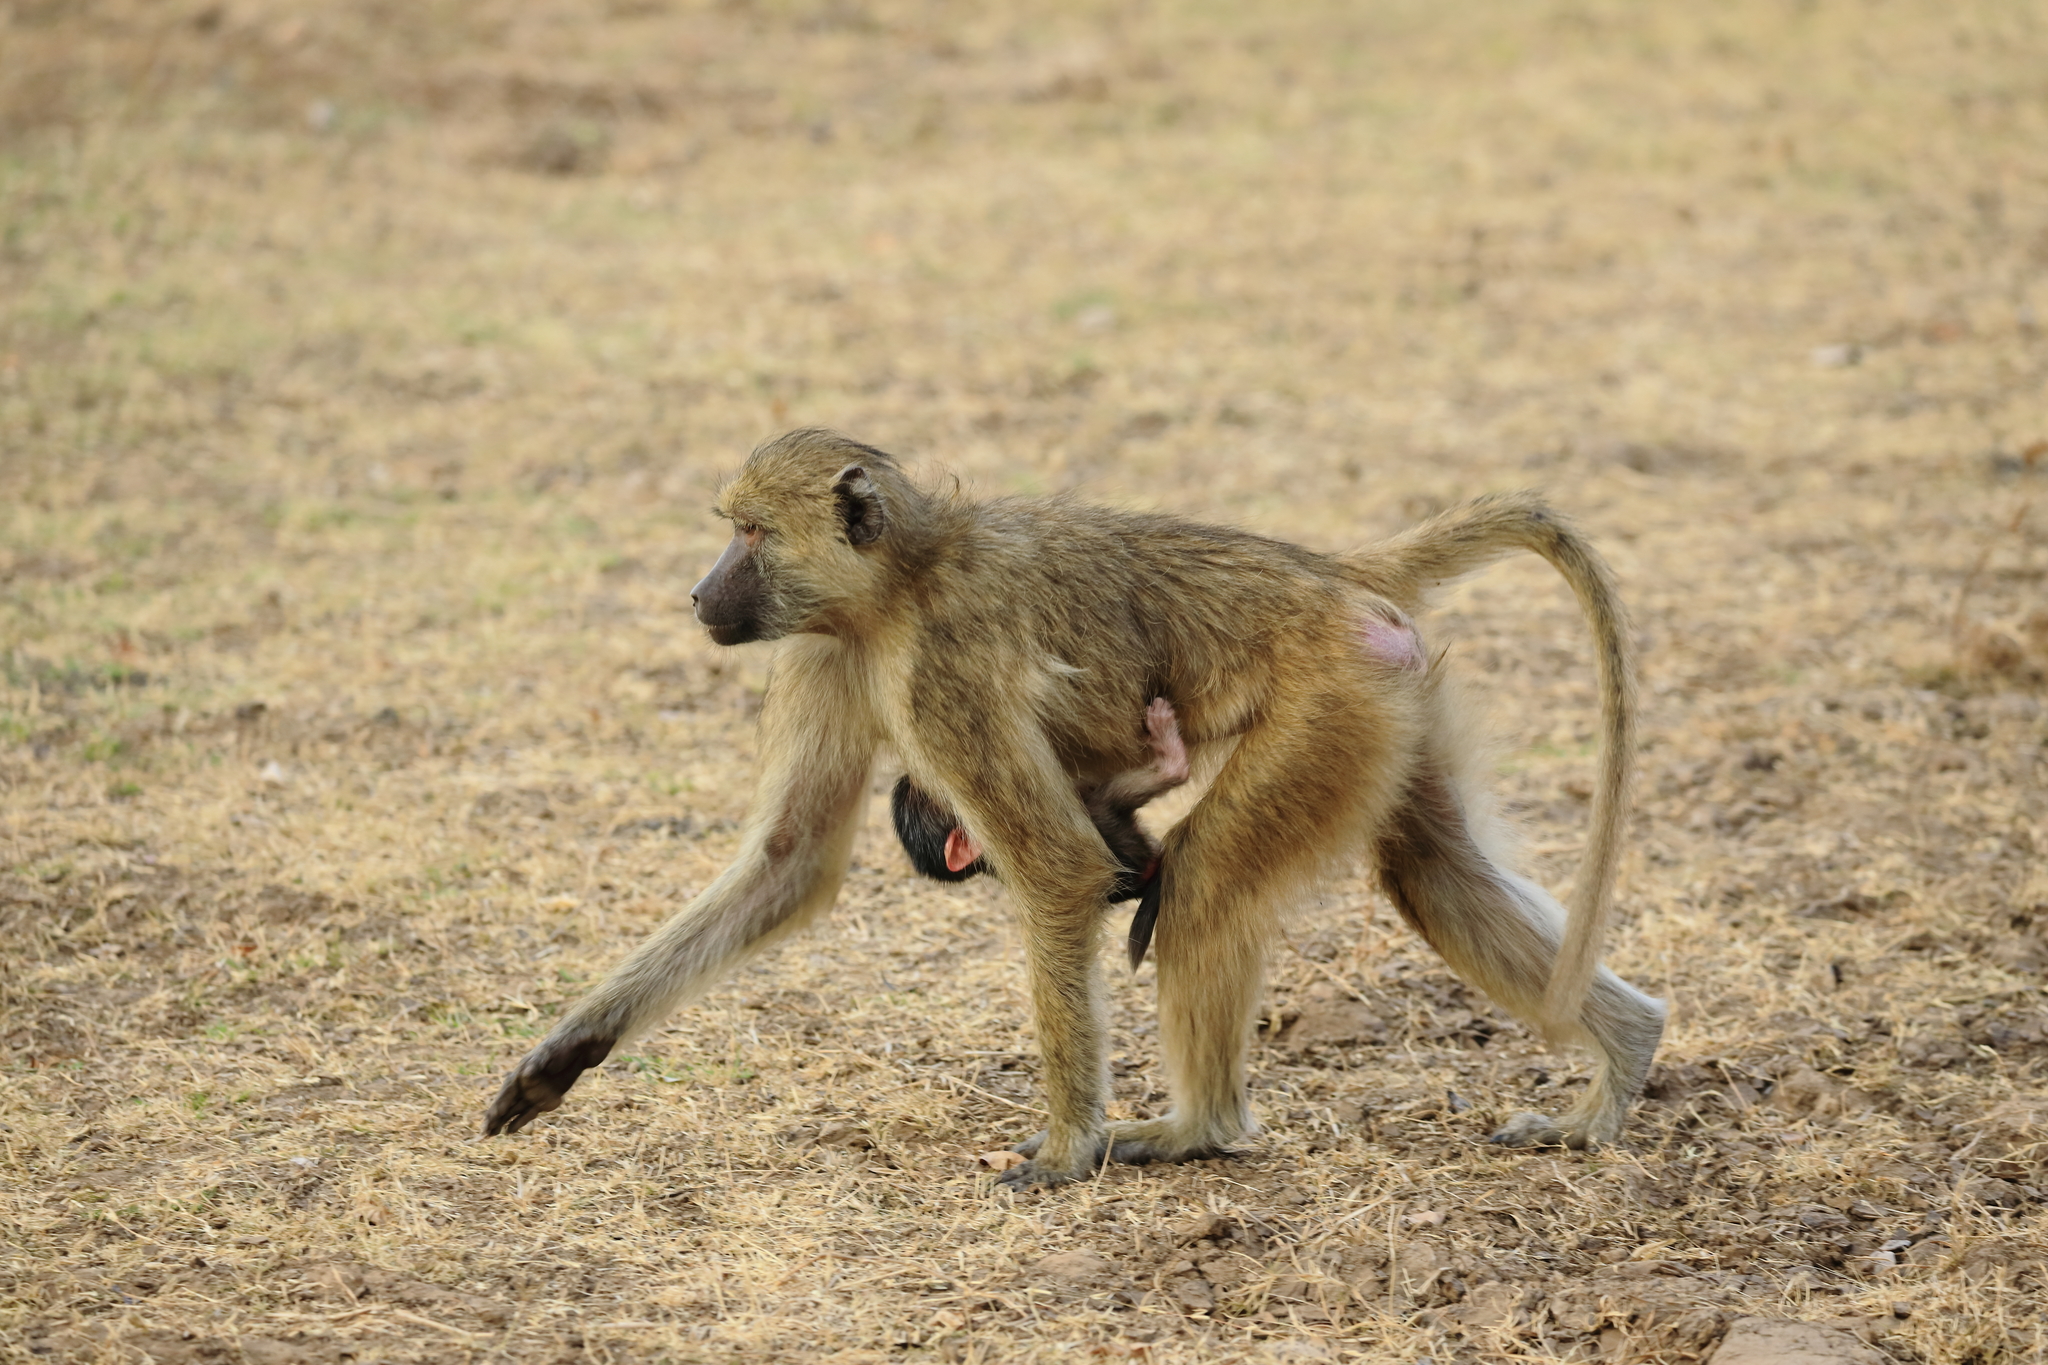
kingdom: Animalia
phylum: Chordata
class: Mammalia
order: Primates
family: Cercopithecidae
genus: Papio
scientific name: Papio cynocephalus
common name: Yellow baboon
